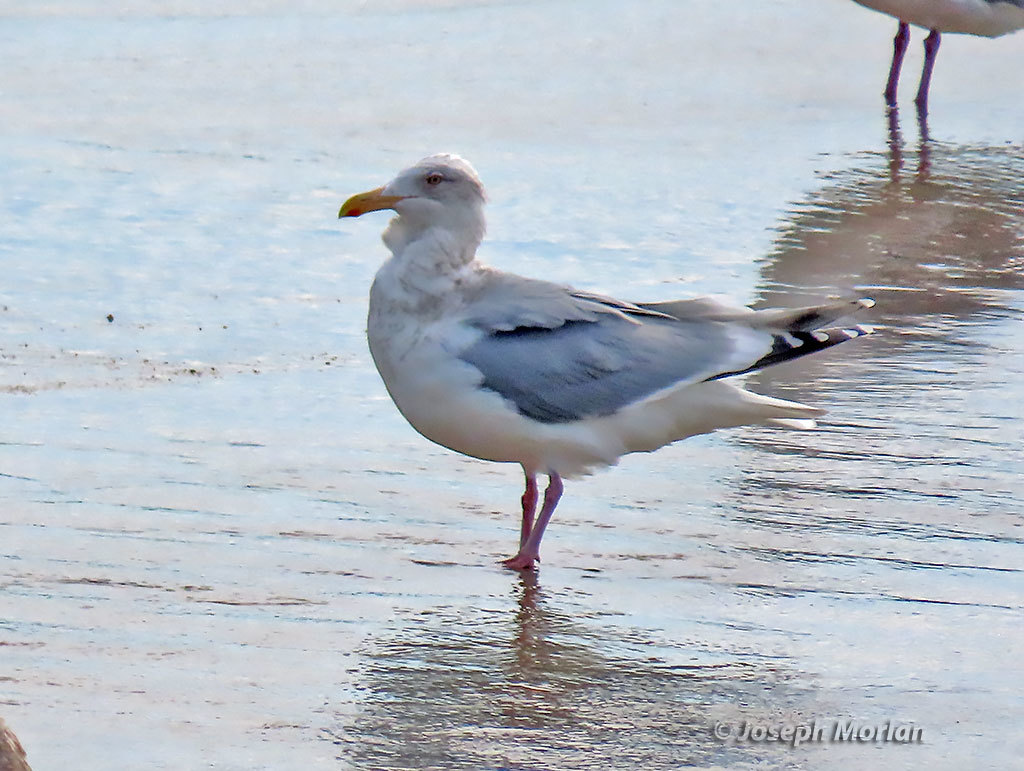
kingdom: Animalia
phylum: Chordata
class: Aves
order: Charadriiformes
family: Laridae
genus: Larus
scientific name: Larus
